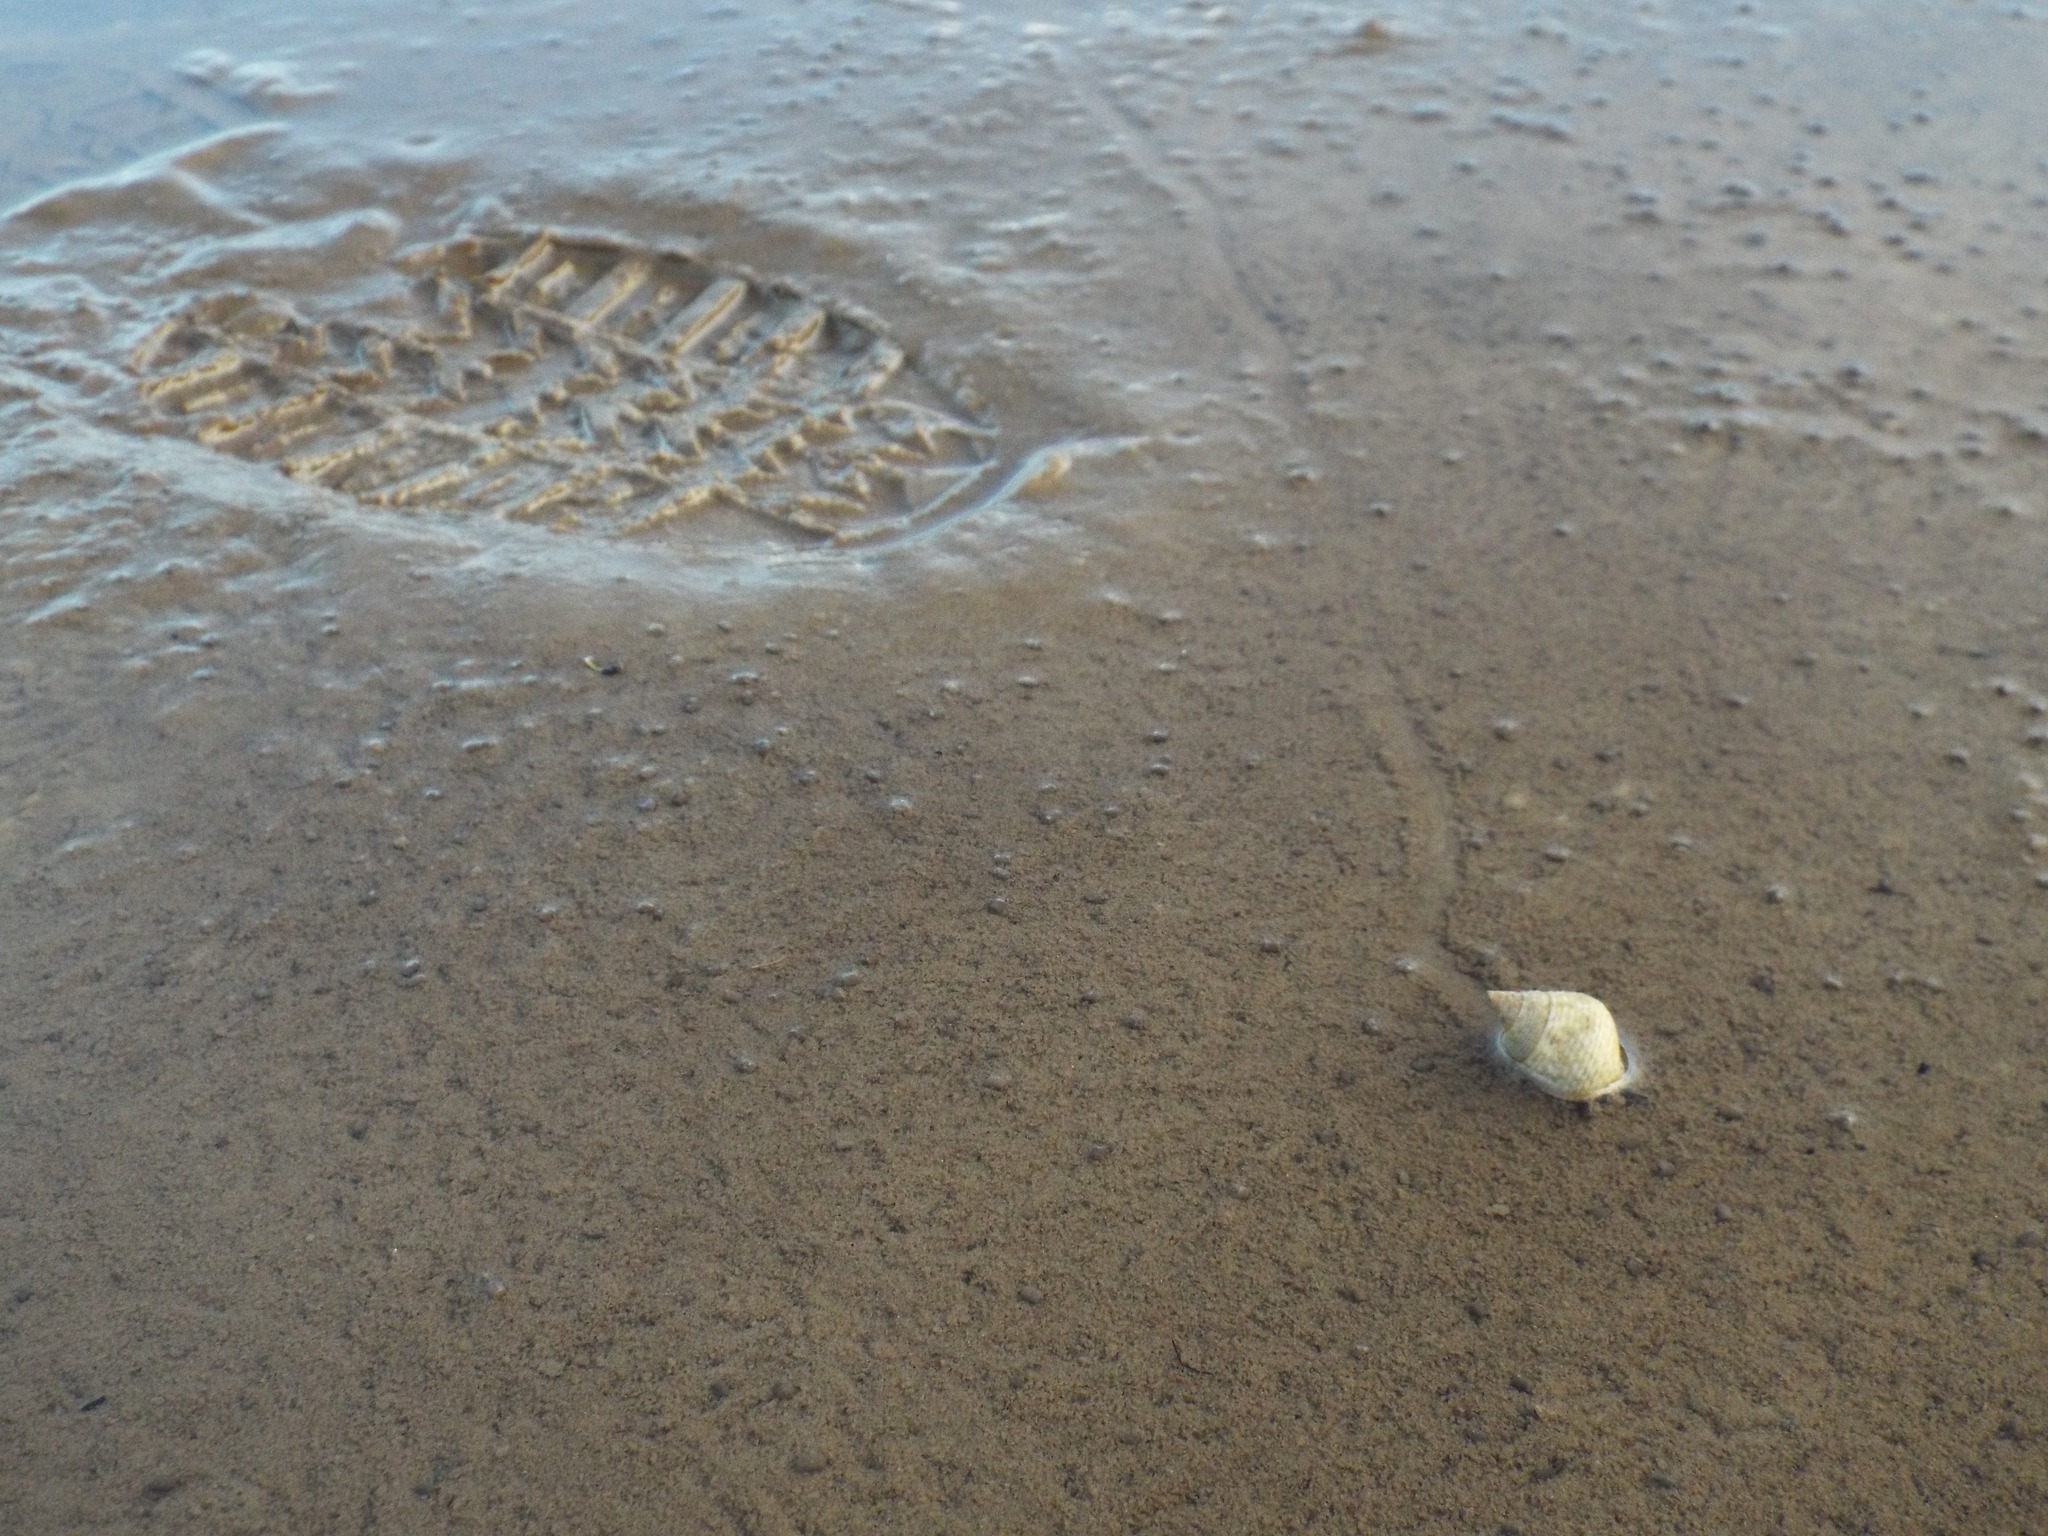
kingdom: Animalia
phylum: Mollusca
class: Gastropoda
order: Littorinimorpha
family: Littorinidae
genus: Littoraria
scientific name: Littoraria irrorata
